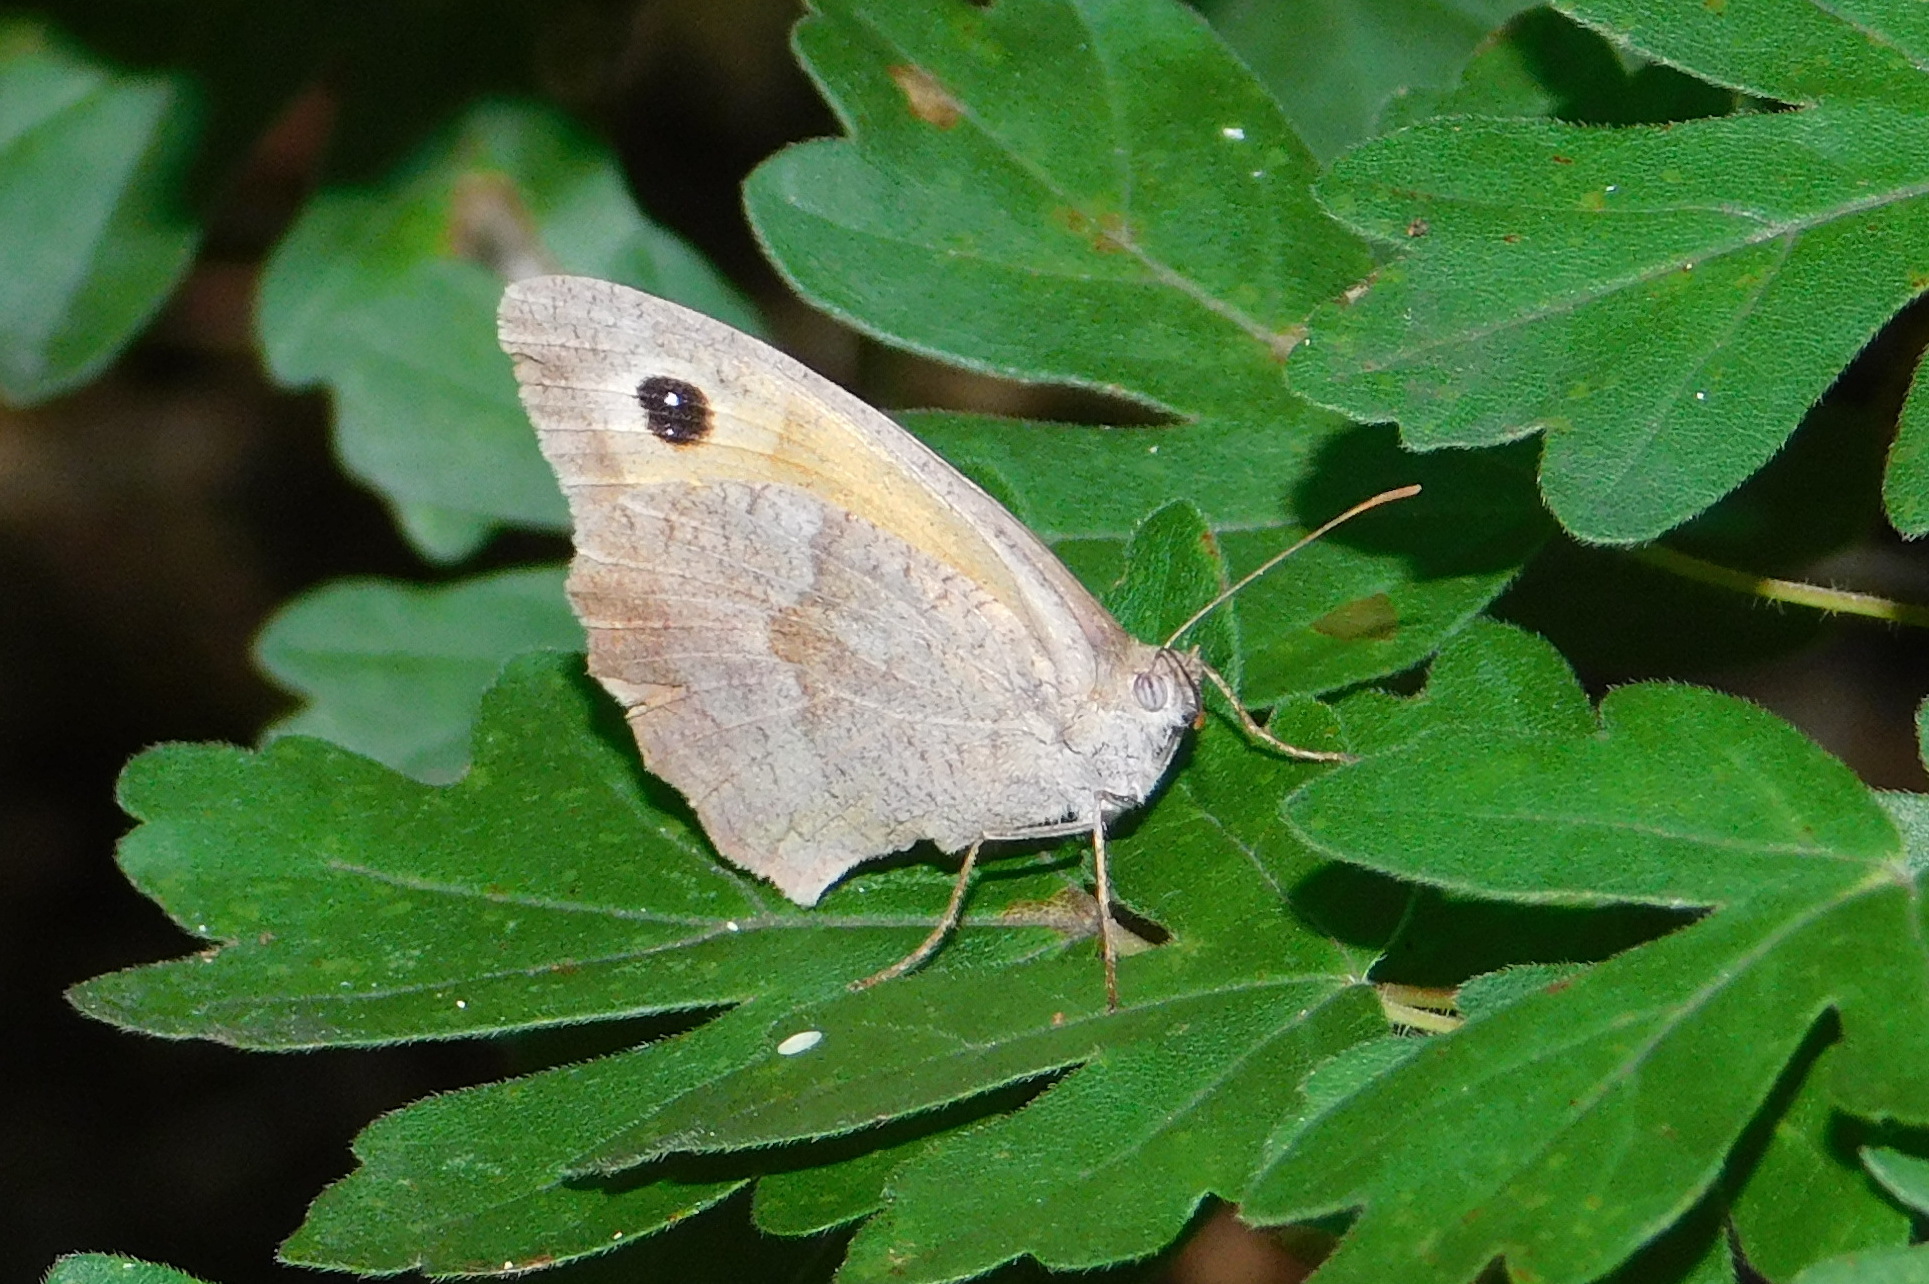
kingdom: Animalia
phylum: Arthropoda
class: Insecta
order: Lepidoptera
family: Nymphalidae
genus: Maniola
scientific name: Maniola jurtina
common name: Meadow brown
